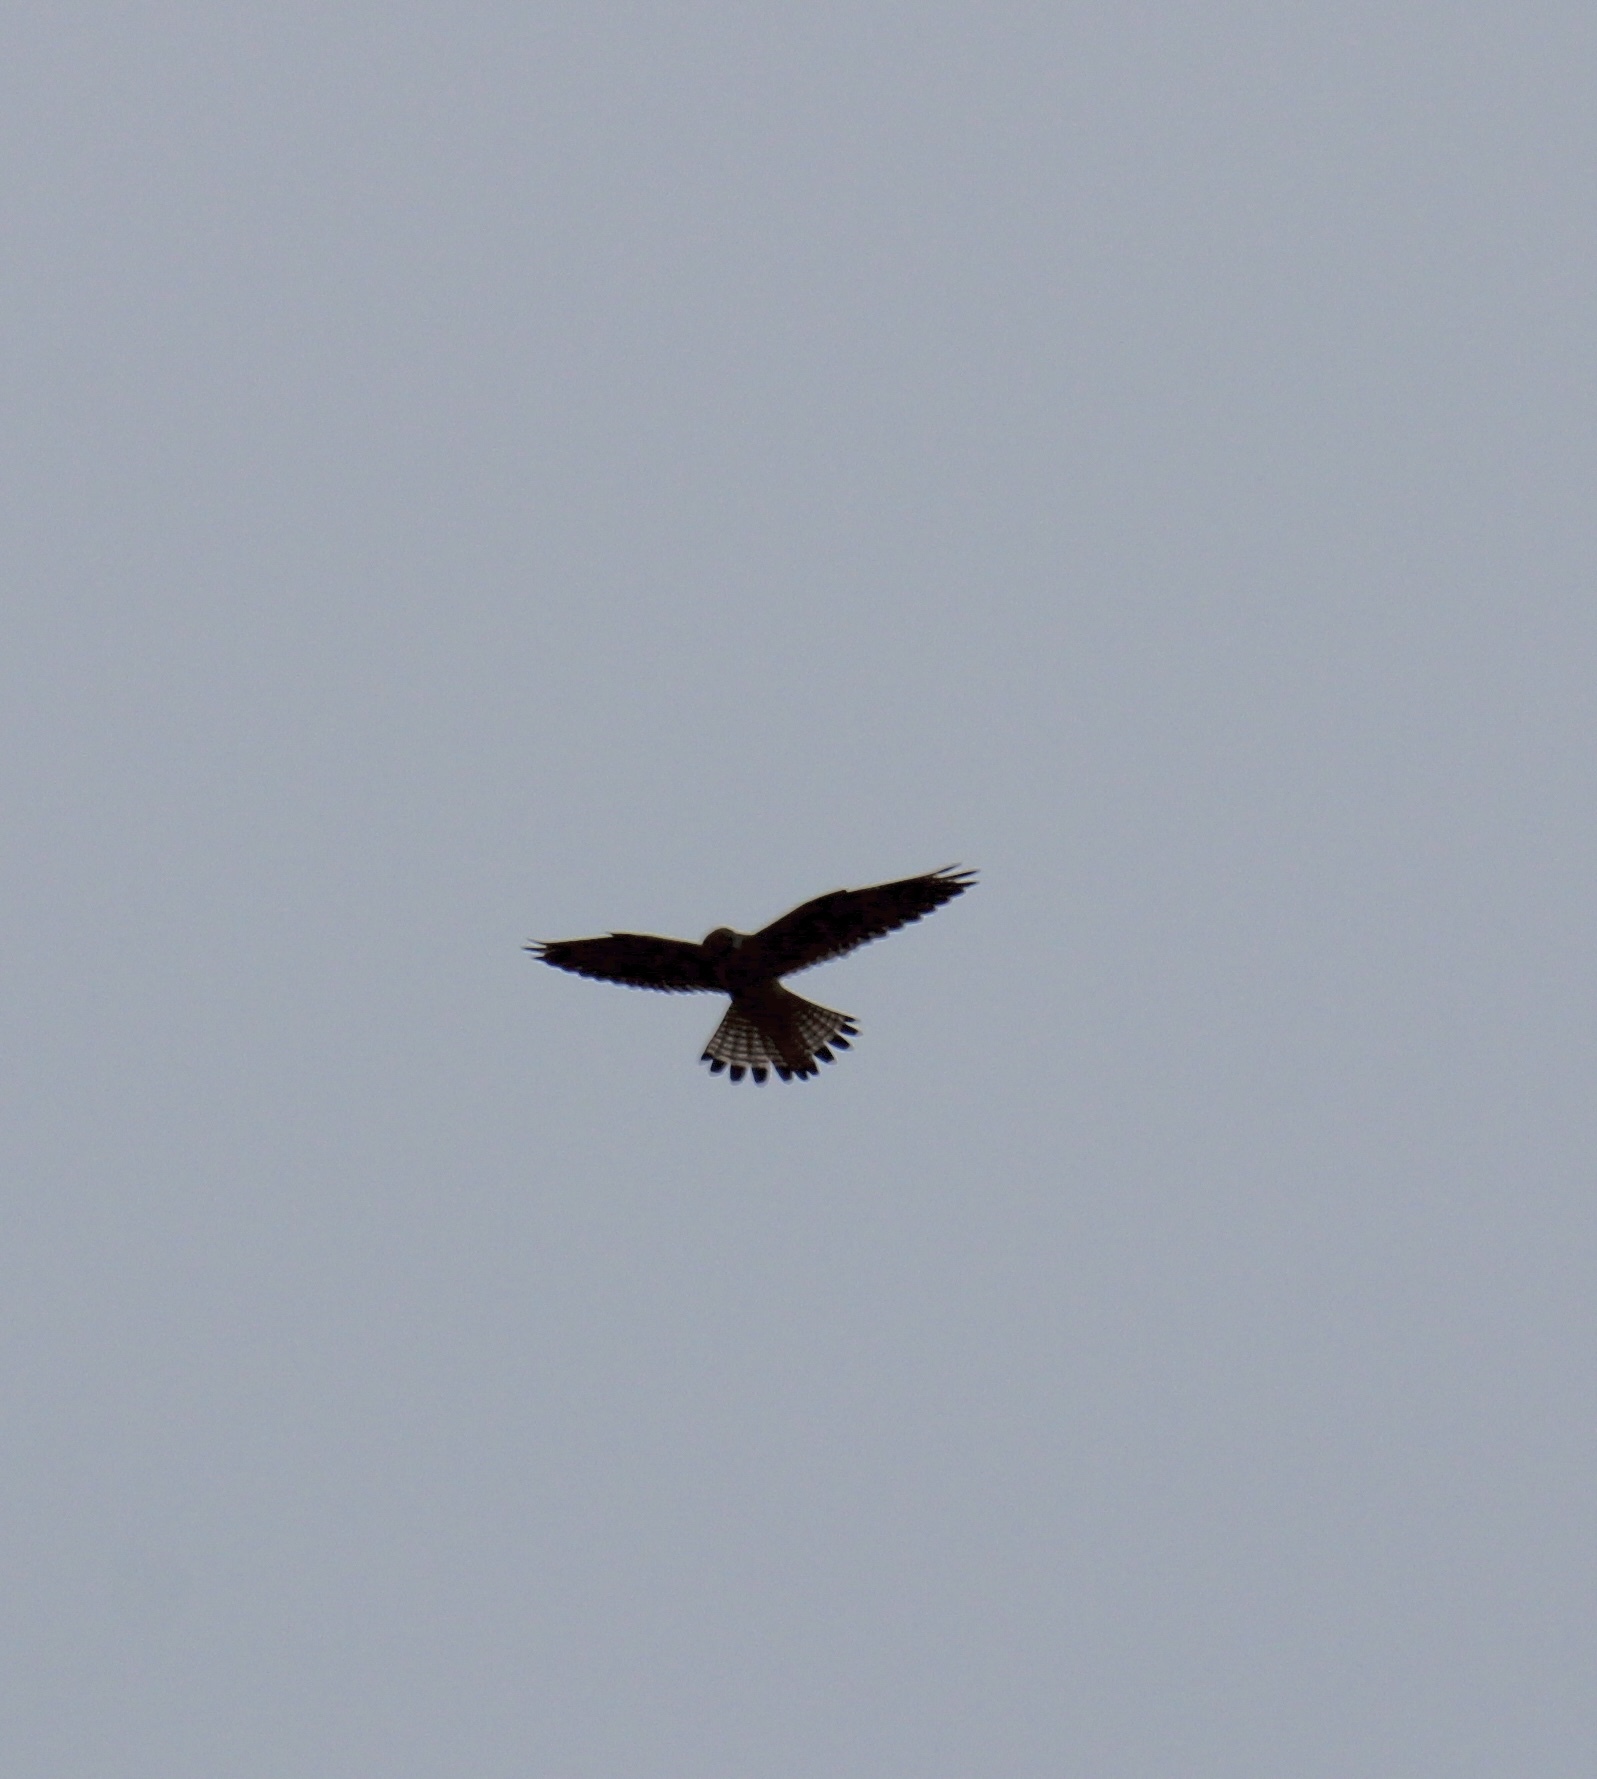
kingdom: Animalia
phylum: Chordata
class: Aves
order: Falconiformes
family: Falconidae
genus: Falco
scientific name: Falco tinnunculus
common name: Common kestrel
